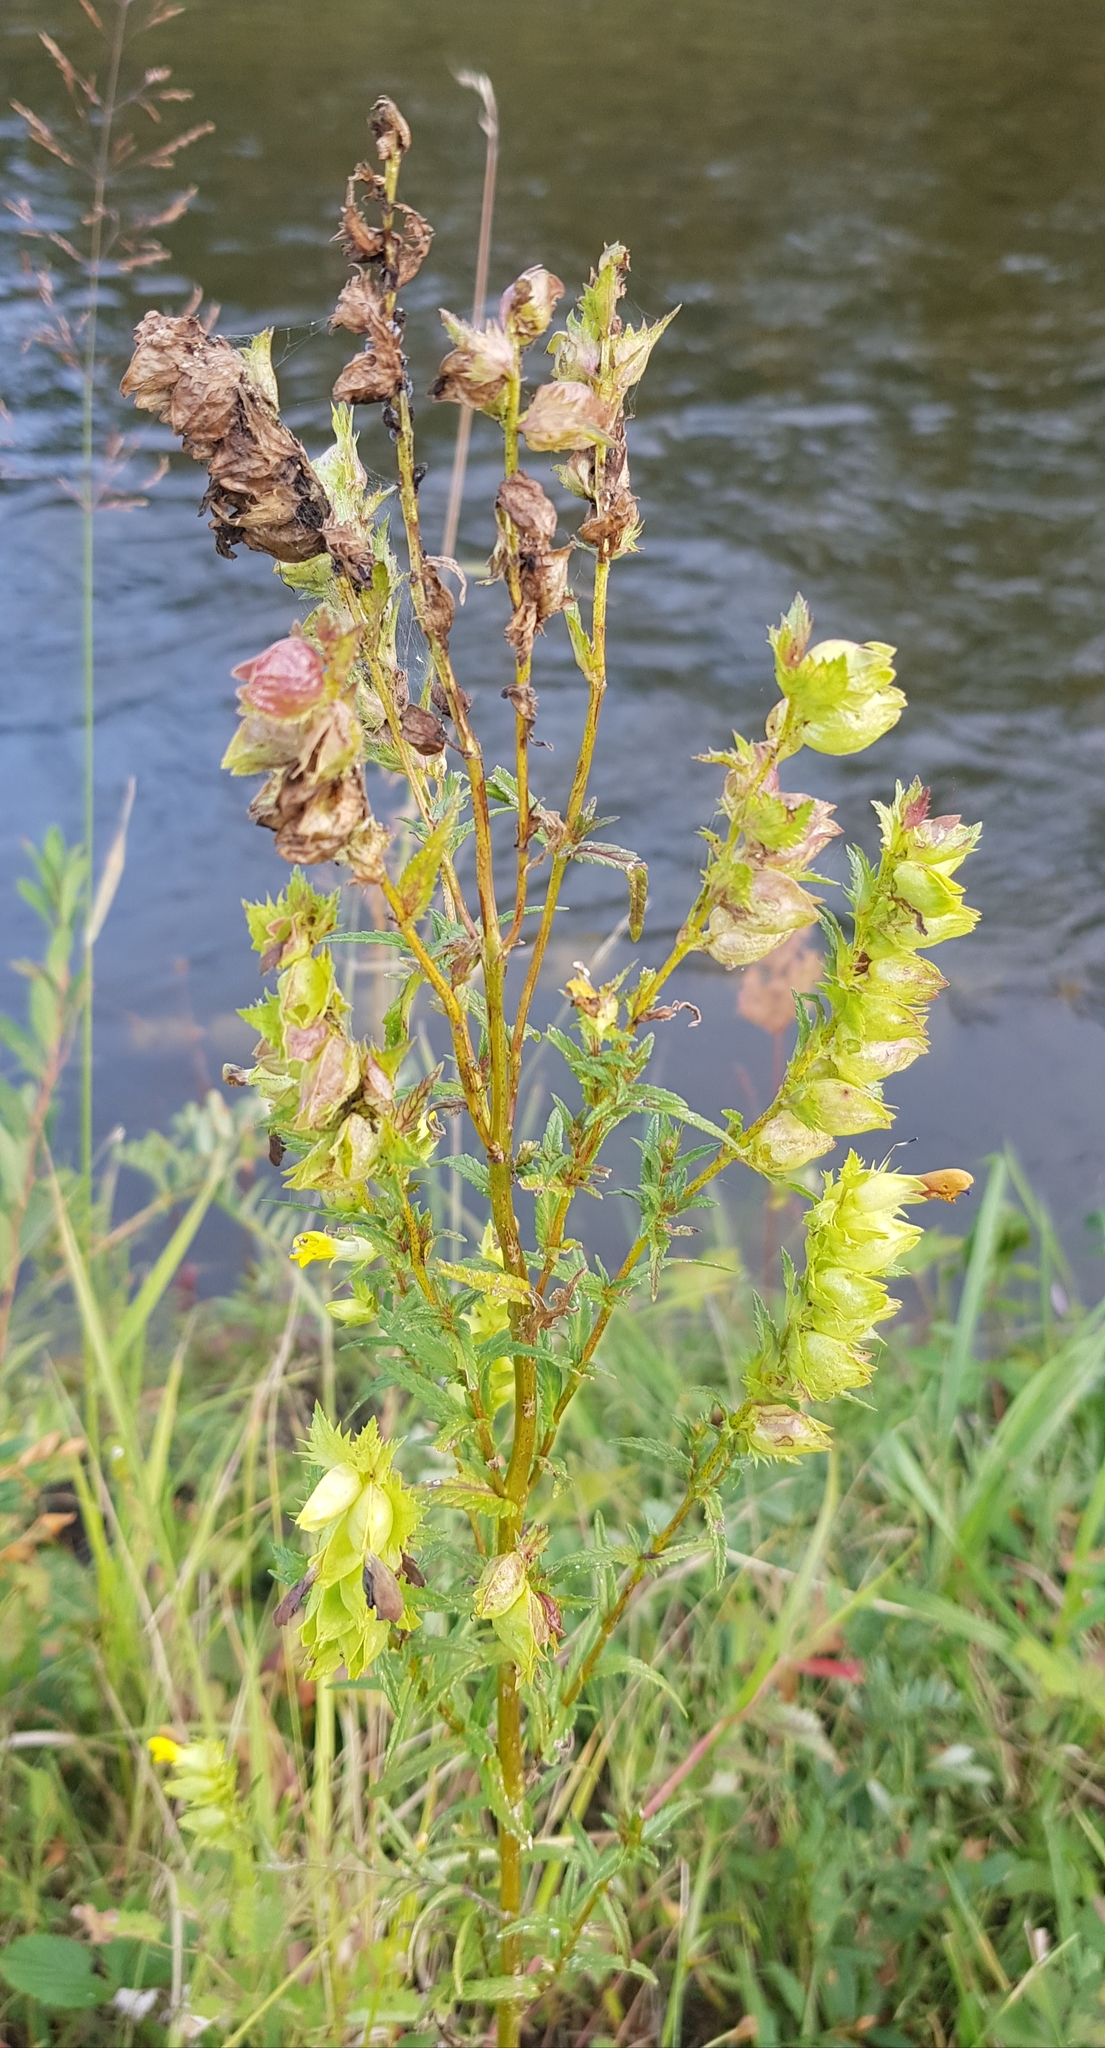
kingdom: Plantae
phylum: Tracheophyta
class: Magnoliopsida
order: Lamiales
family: Orobanchaceae
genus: Rhinanthus
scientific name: Rhinanthus serotinus
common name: Late-flowering yellow rattle
